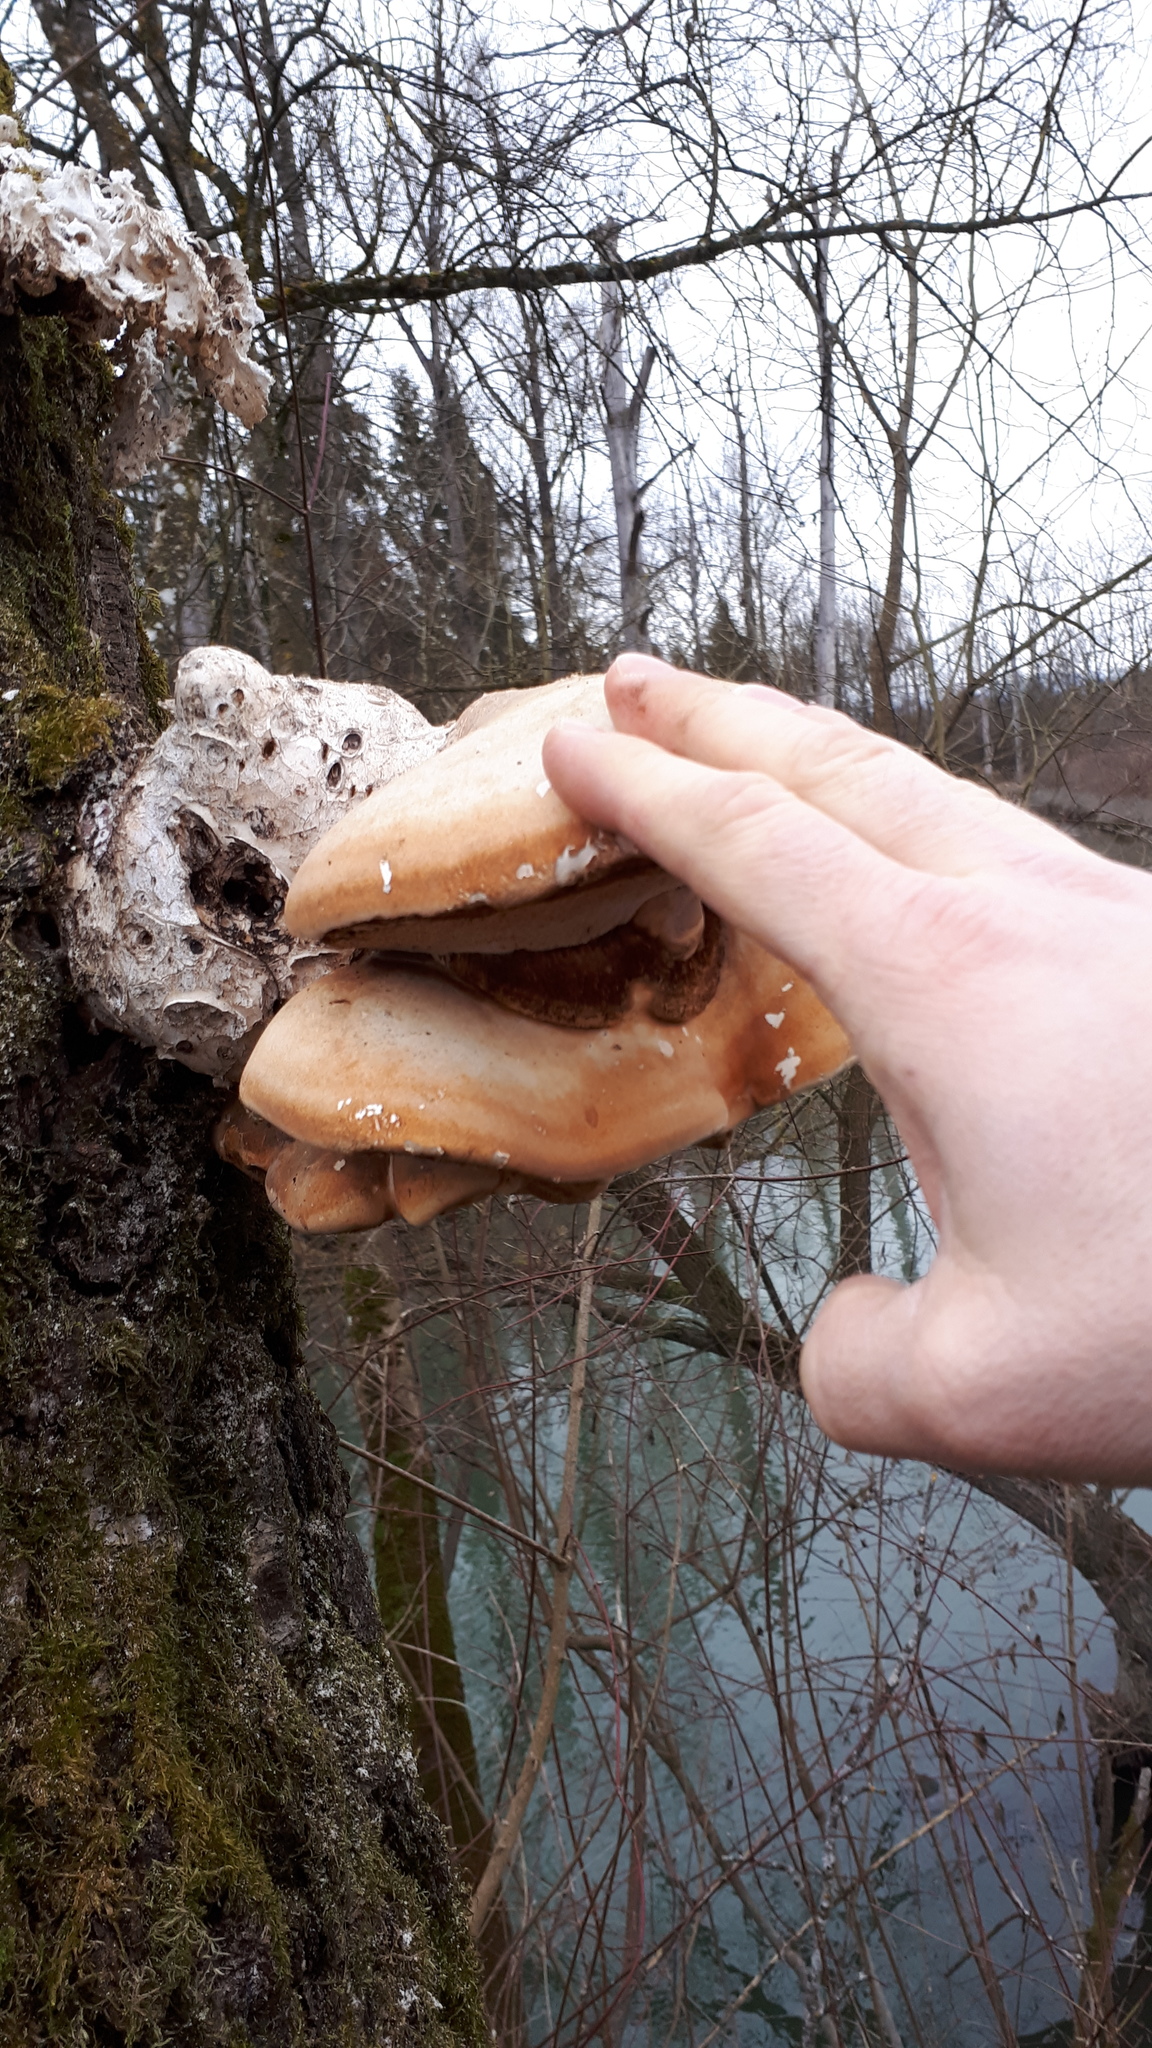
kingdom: Fungi
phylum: Basidiomycota
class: Agaricomycetes
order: Polyporales
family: Fomitopsidaceae
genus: Fomitopsis
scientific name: Fomitopsis betulina
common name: Birch polypore
